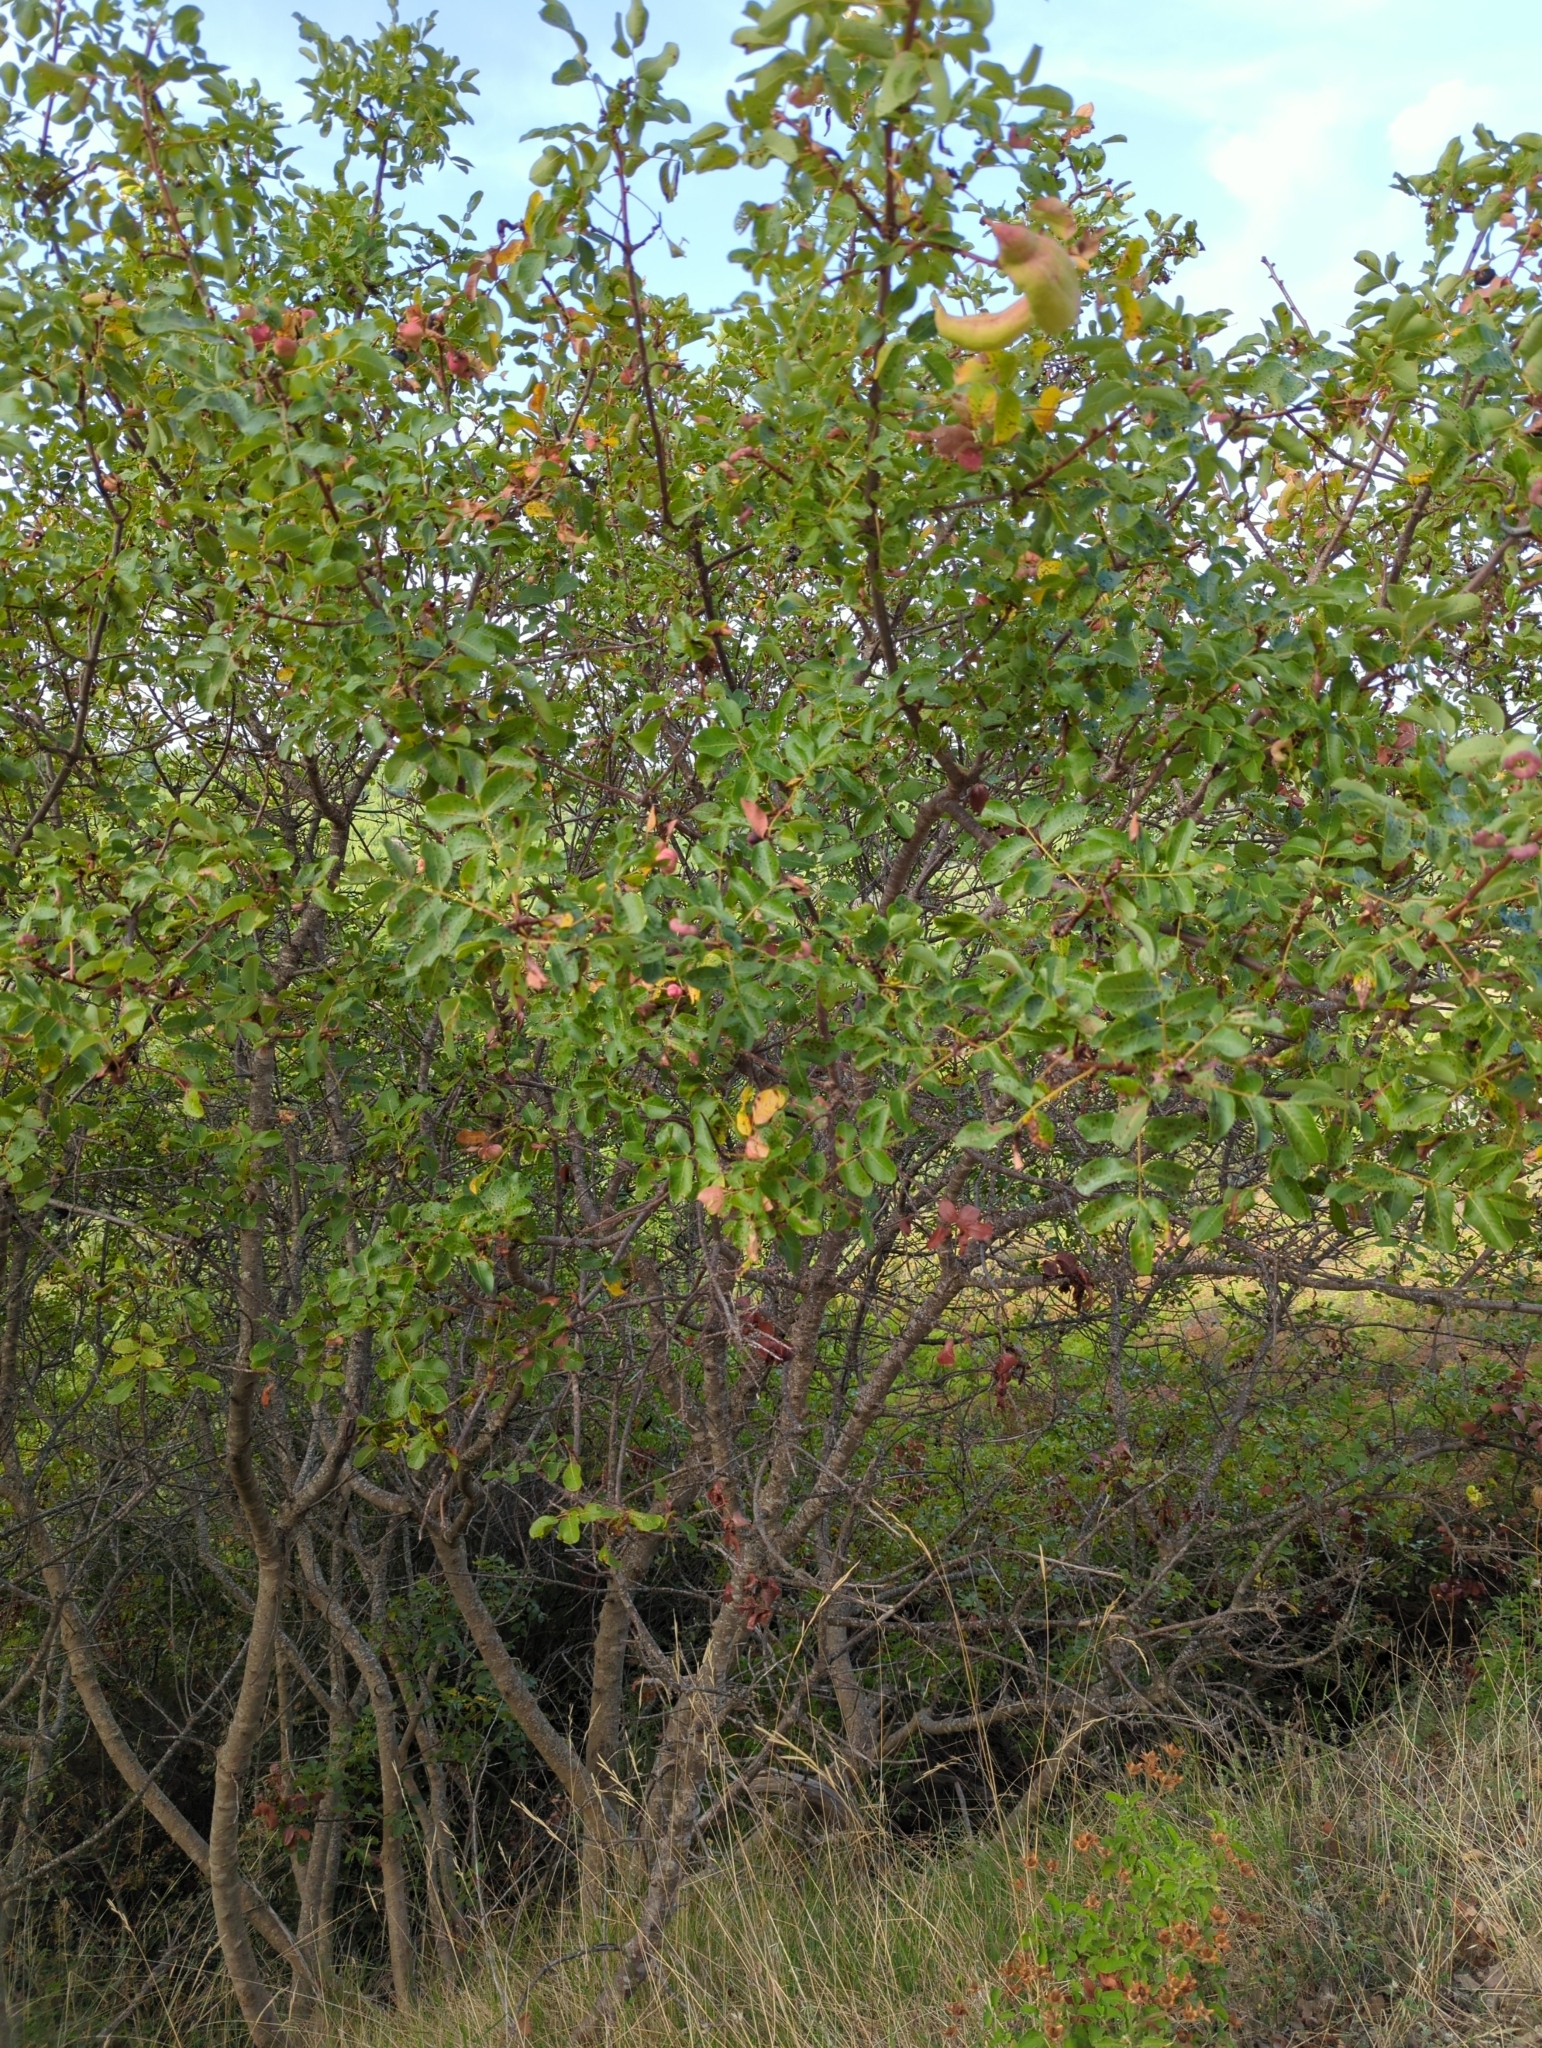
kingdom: Plantae
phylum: Tracheophyta
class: Magnoliopsida
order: Sapindales
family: Anacardiaceae
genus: Pistacia
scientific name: Pistacia terebinthus
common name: Terebinth
